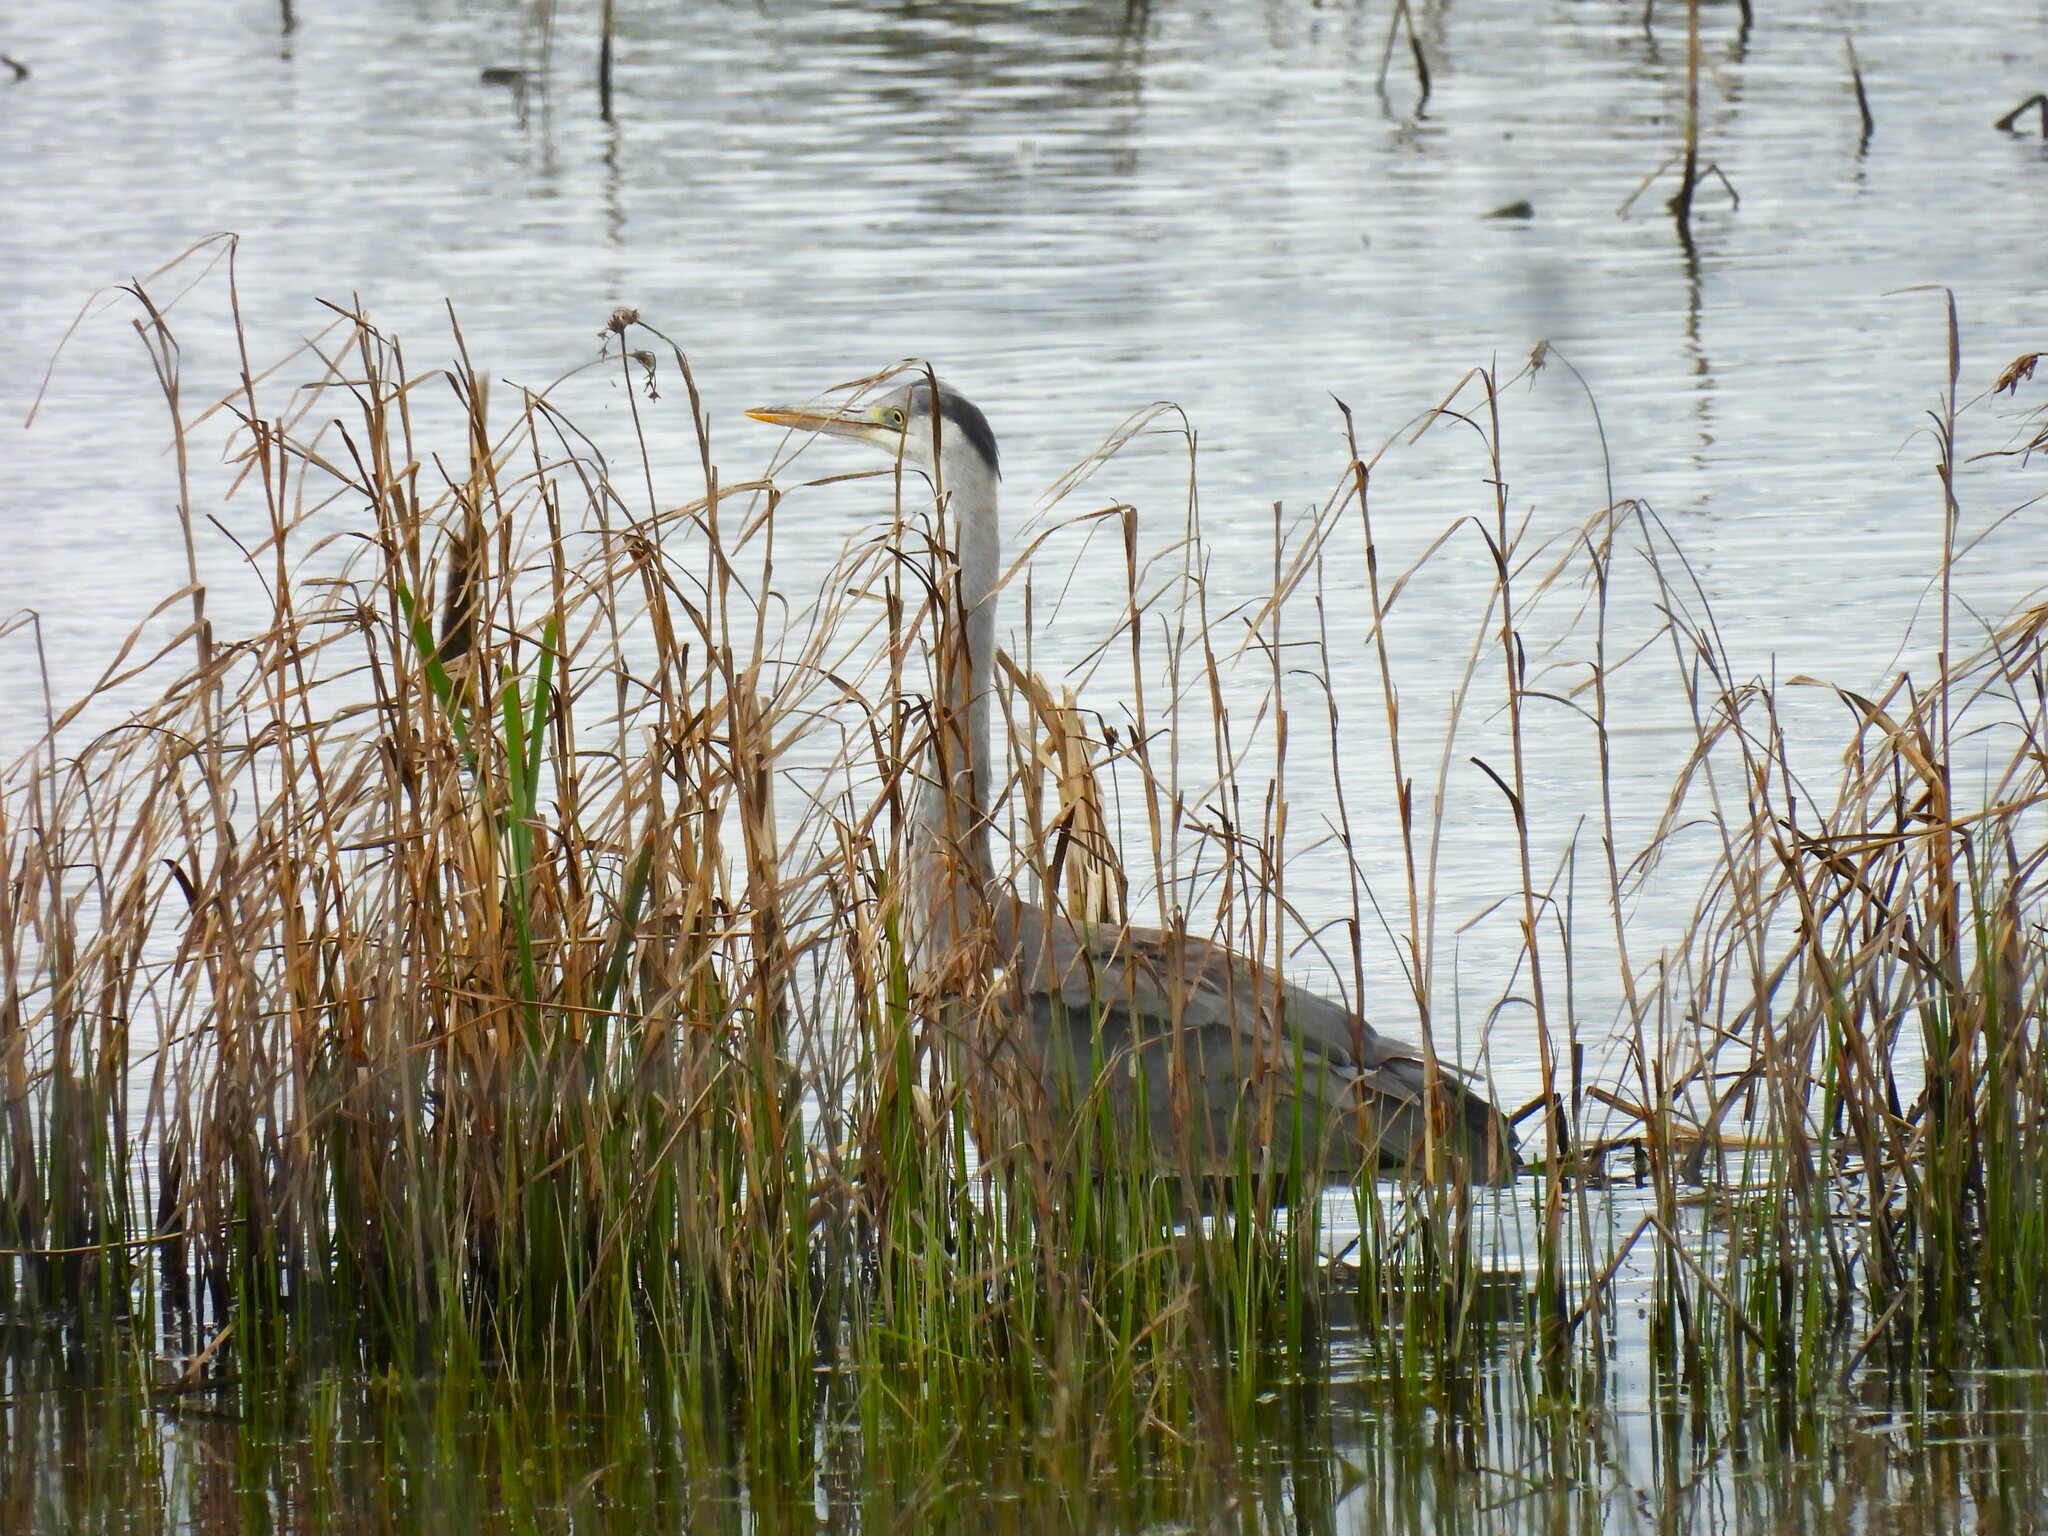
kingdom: Animalia
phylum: Chordata
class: Aves
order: Pelecaniformes
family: Ardeidae
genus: Ardea
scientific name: Ardea cinerea
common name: Grey heron
